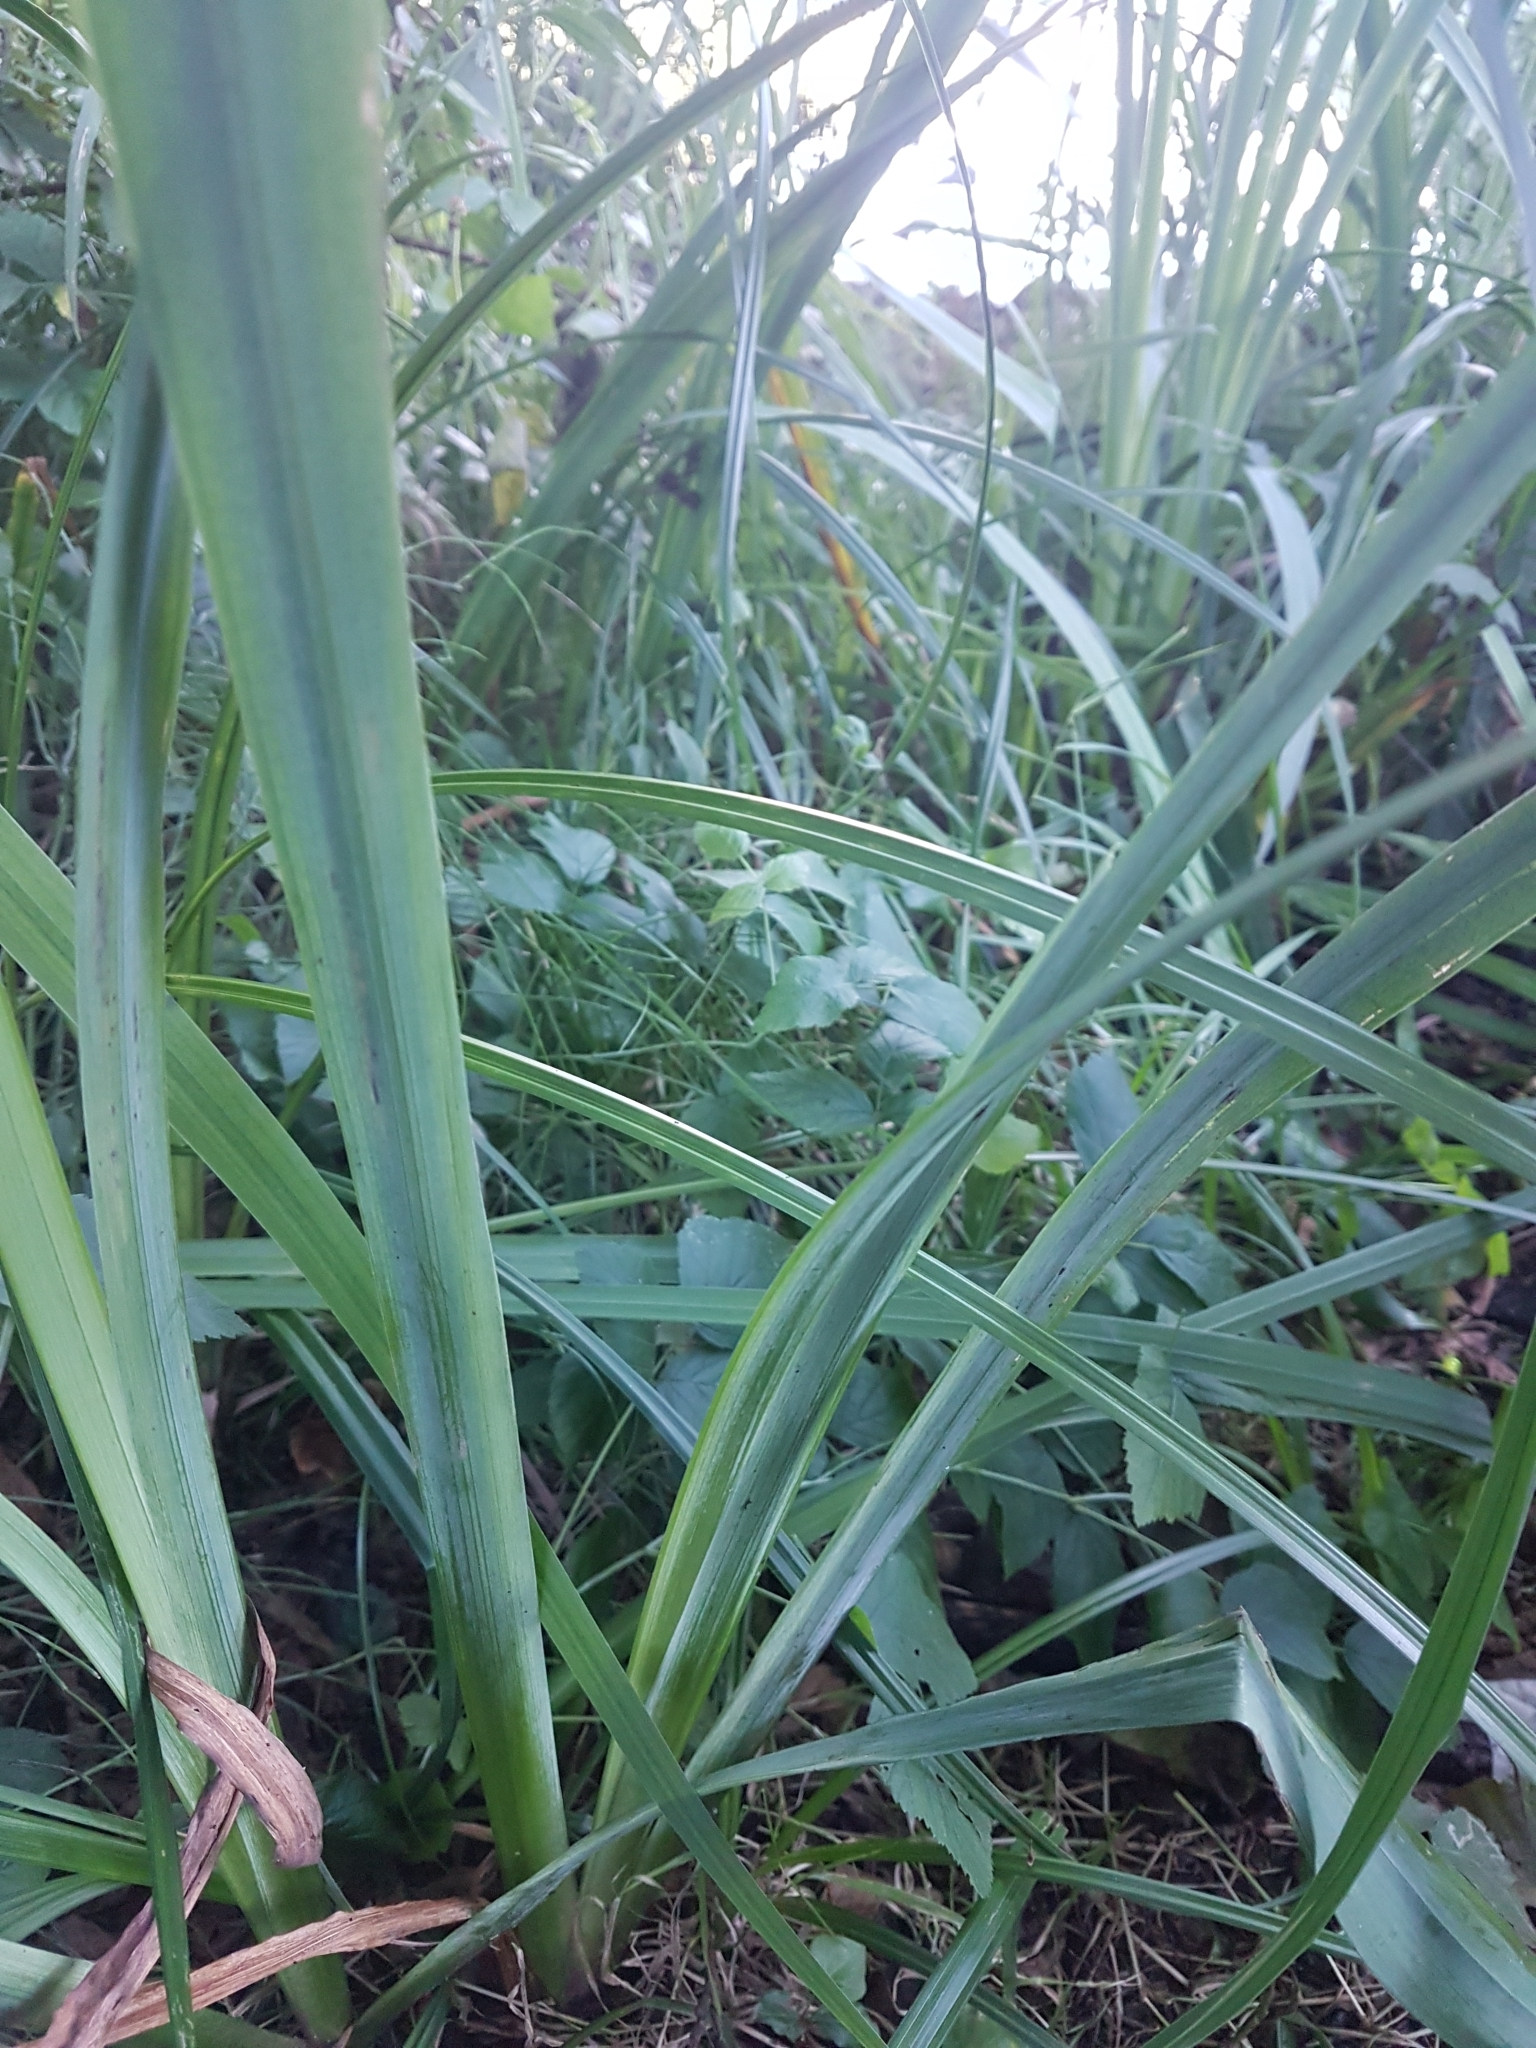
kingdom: Plantae
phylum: Tracheophyta
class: Liliopsida
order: Asparagales
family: Iridaceae
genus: Iris
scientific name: Iris pseudacorus
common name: Yellow flag
